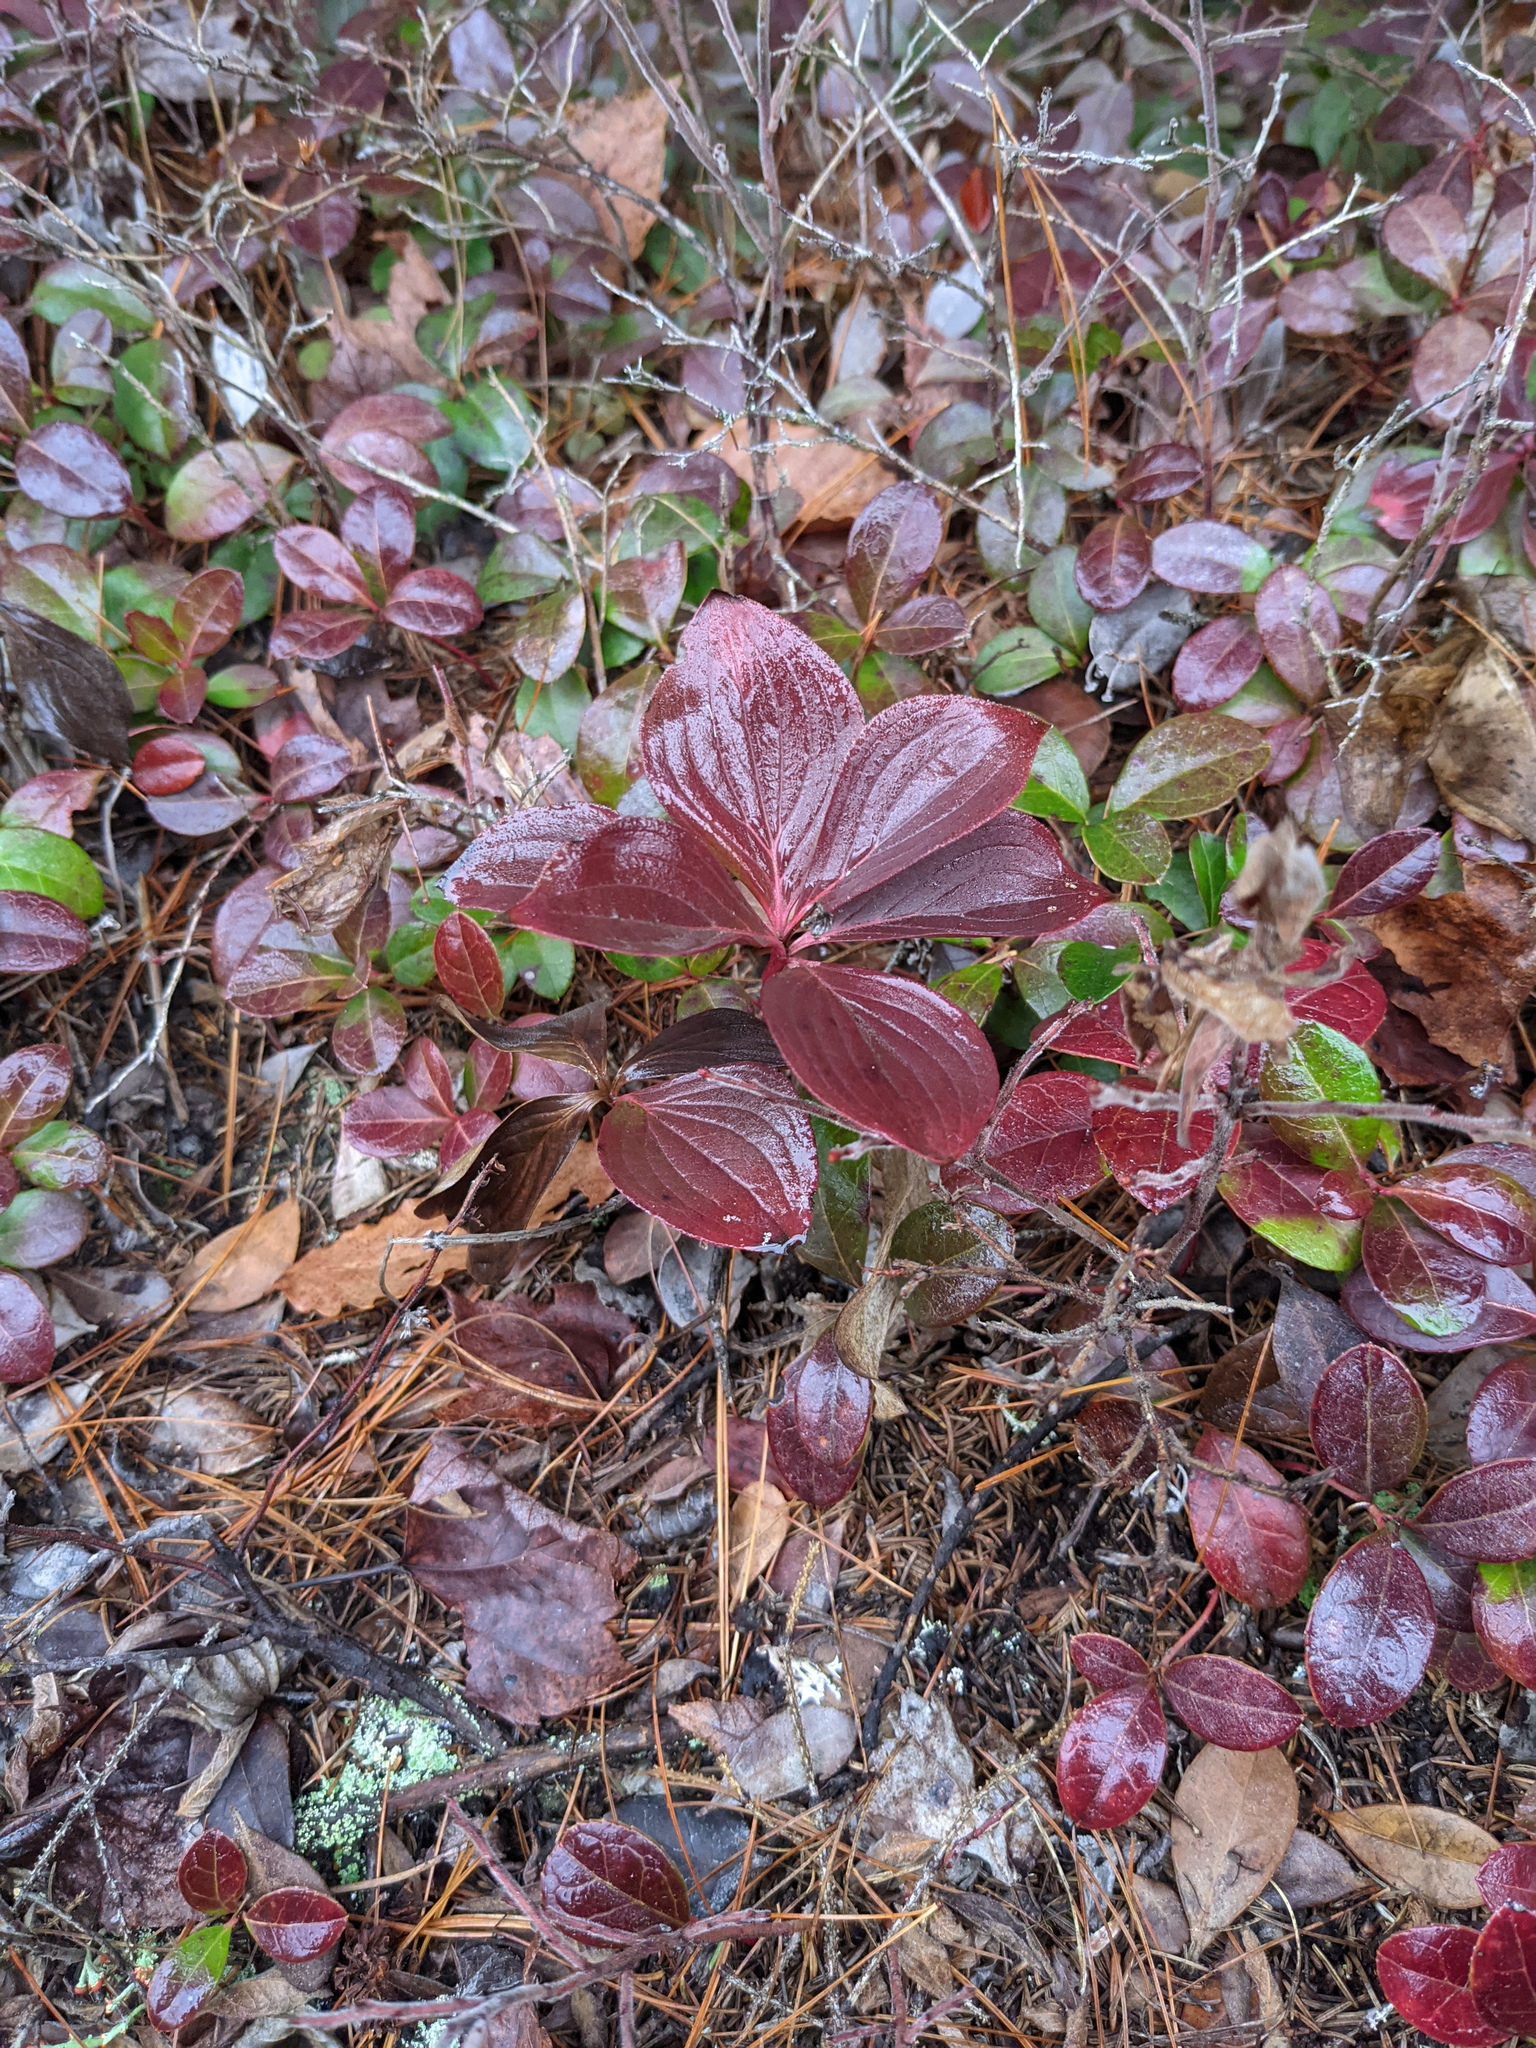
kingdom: Plantae
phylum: Tracheophyta
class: Magnoliopsida
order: Cornales
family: Cornaceae
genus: Cornus
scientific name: Cornus canadensis
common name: Creeping dogwood
